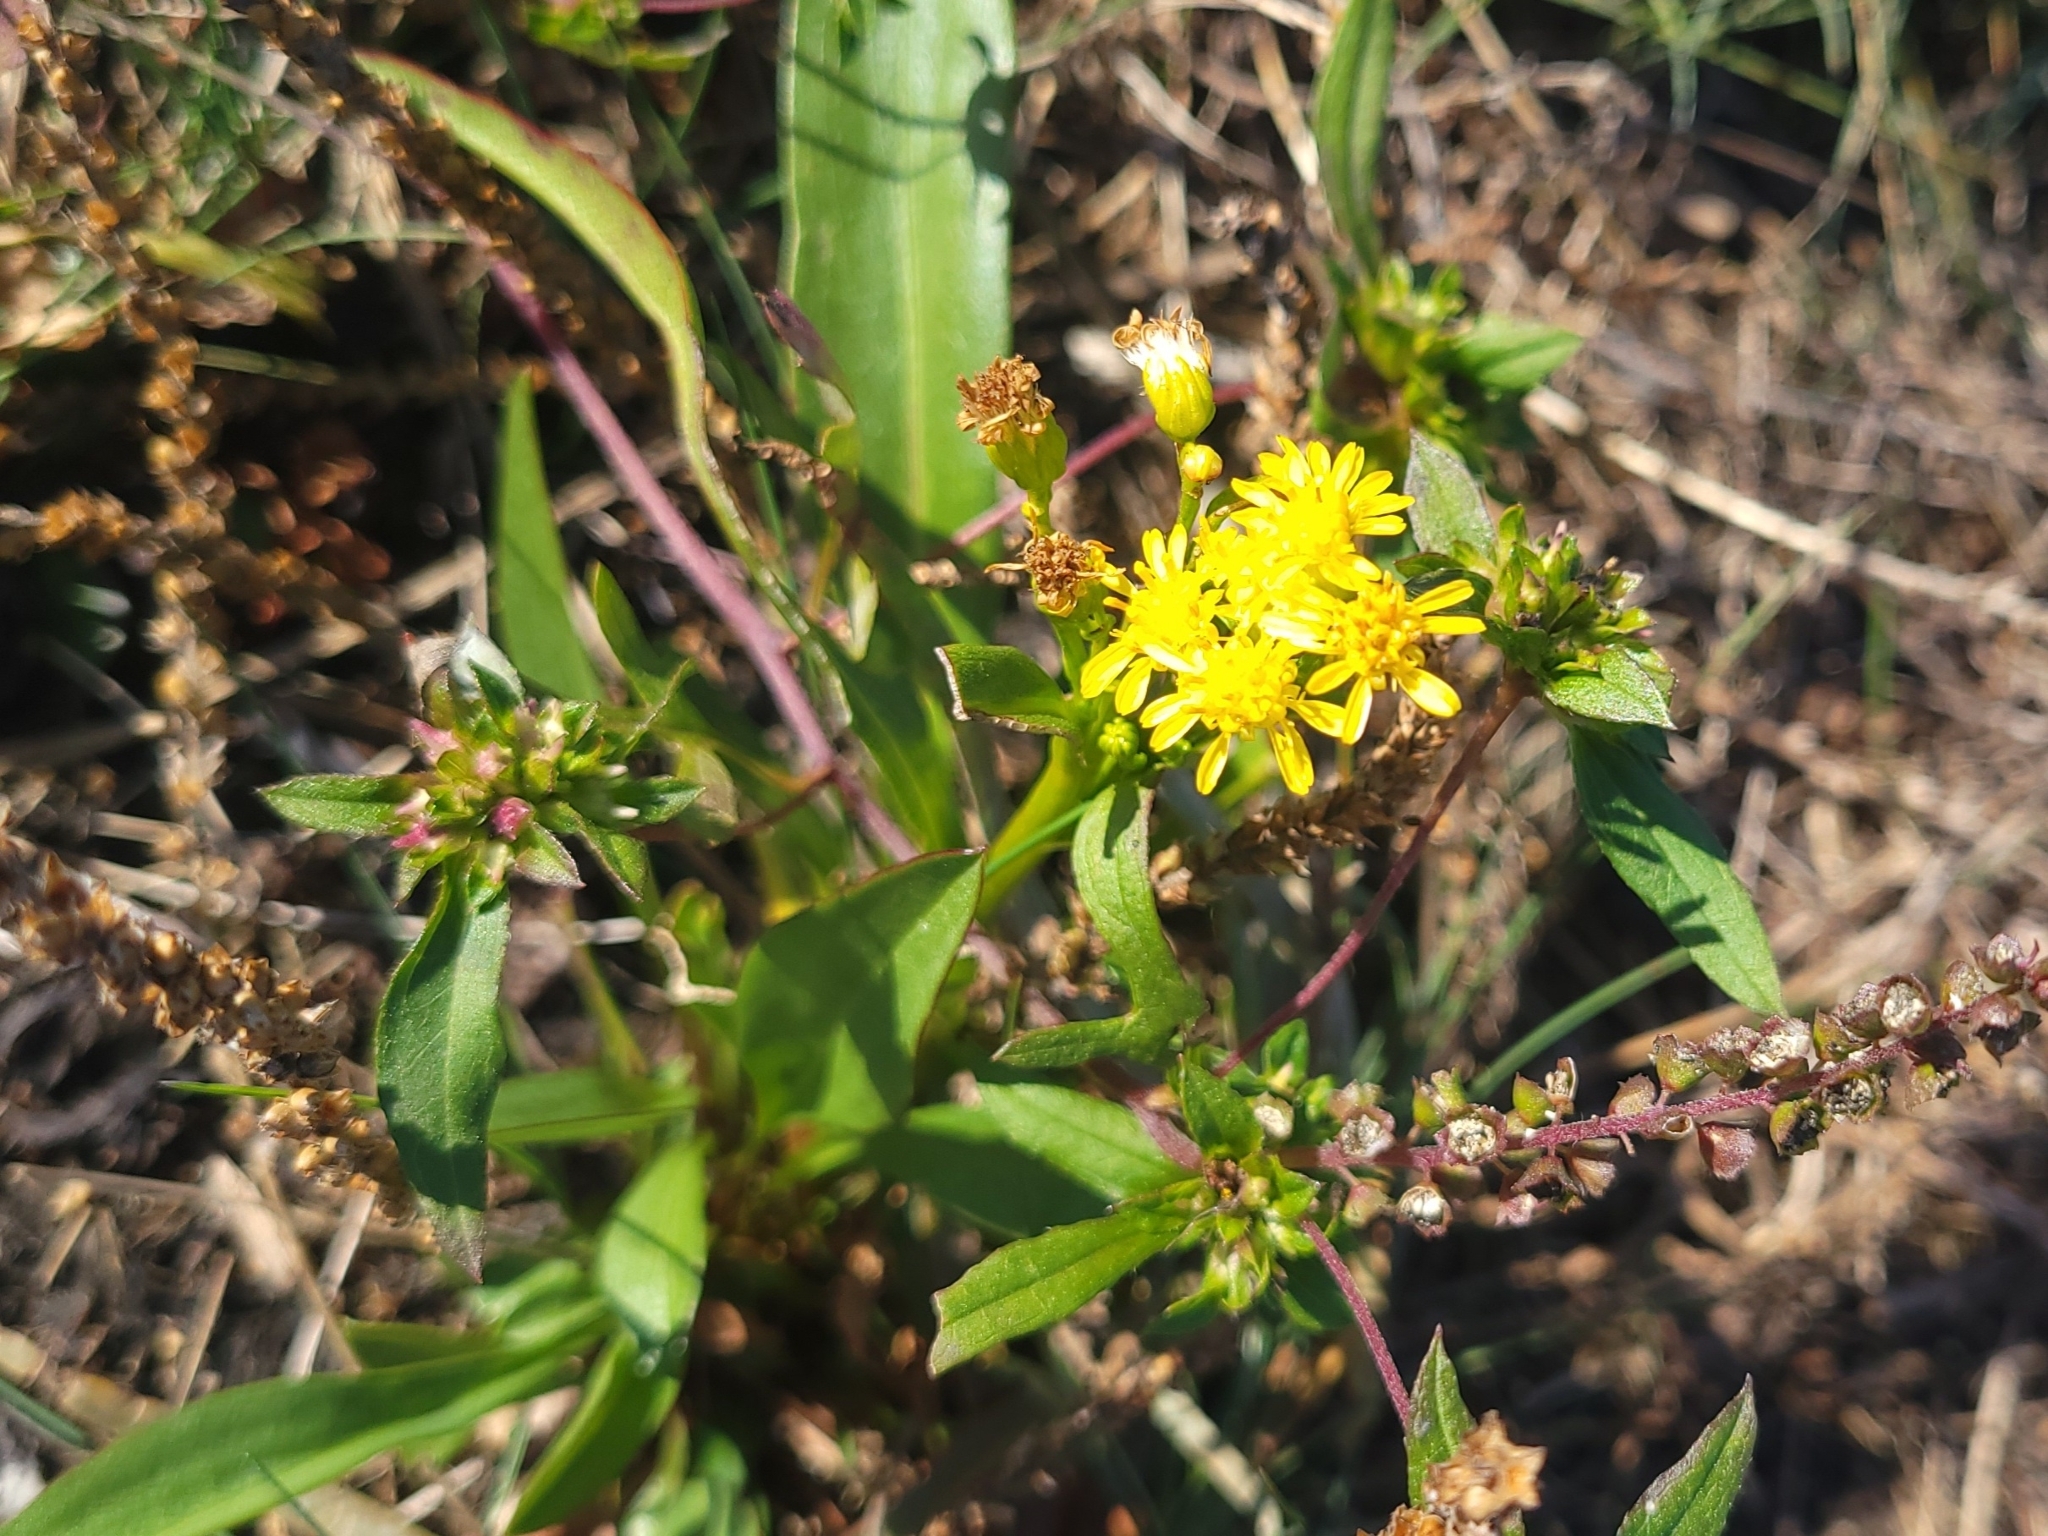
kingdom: Plantae
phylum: Tracheophyta
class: Magnoliopsida
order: Asterales
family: Asteraceae
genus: Solidago
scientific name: Solidago sempervirens
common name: Salt-marsh goldenrod
